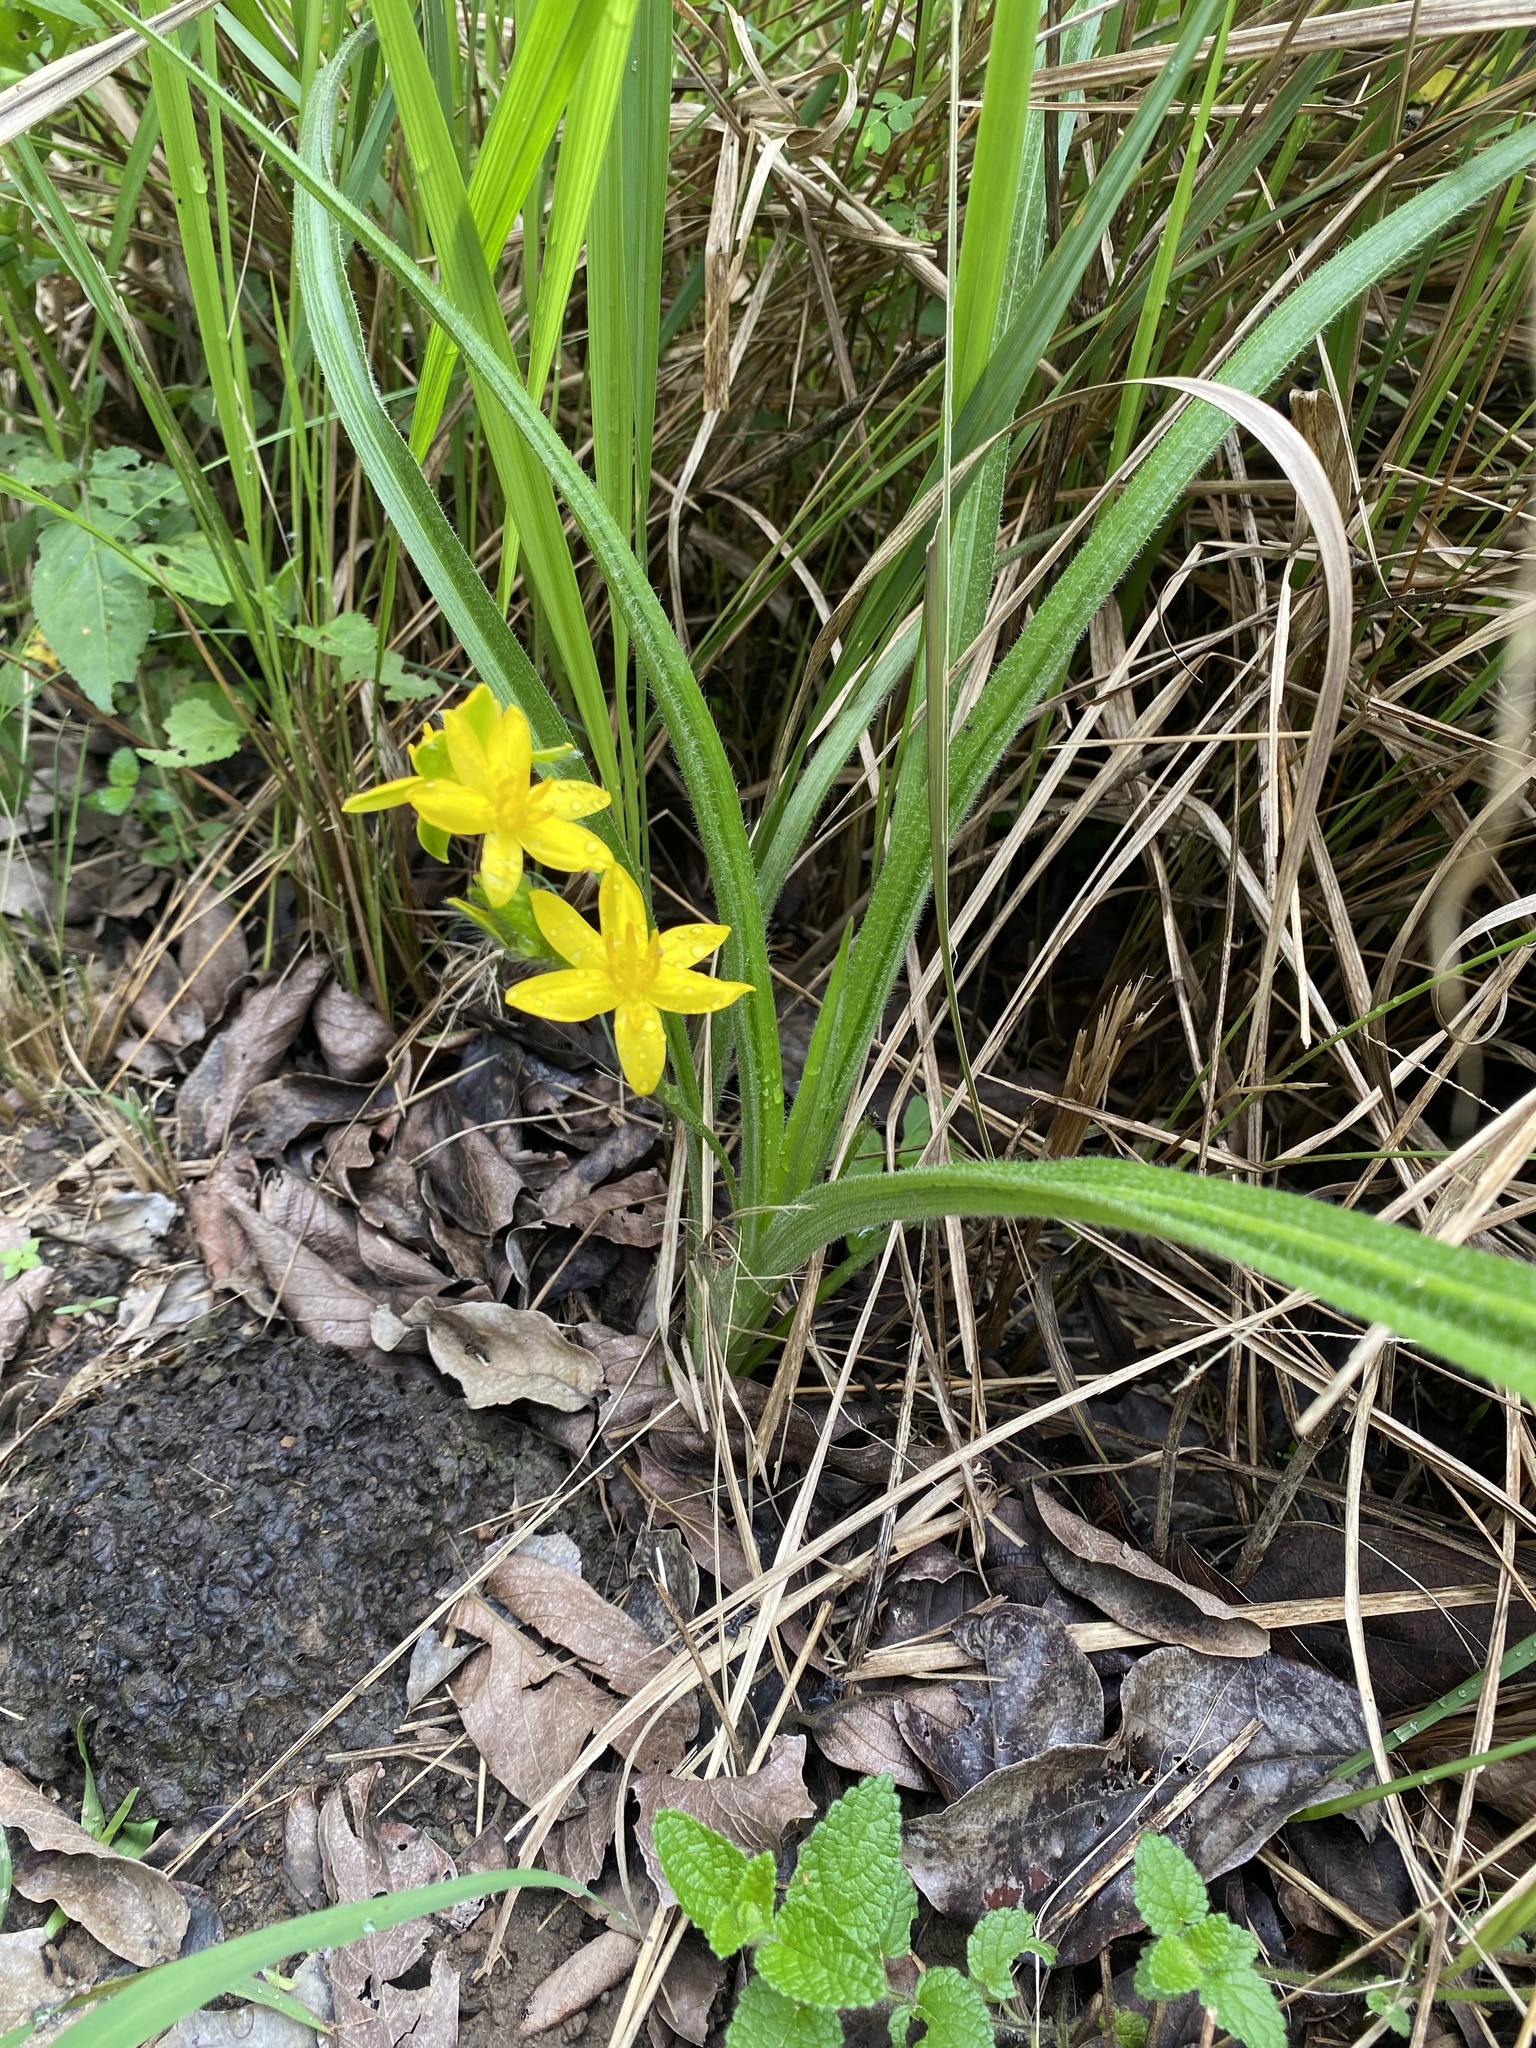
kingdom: Plantae
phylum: Tracheophyta
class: Liliopsida
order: Asparagales
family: Hypoxidaceae
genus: Hypoxis
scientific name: Hypoxis hemerocallidea
